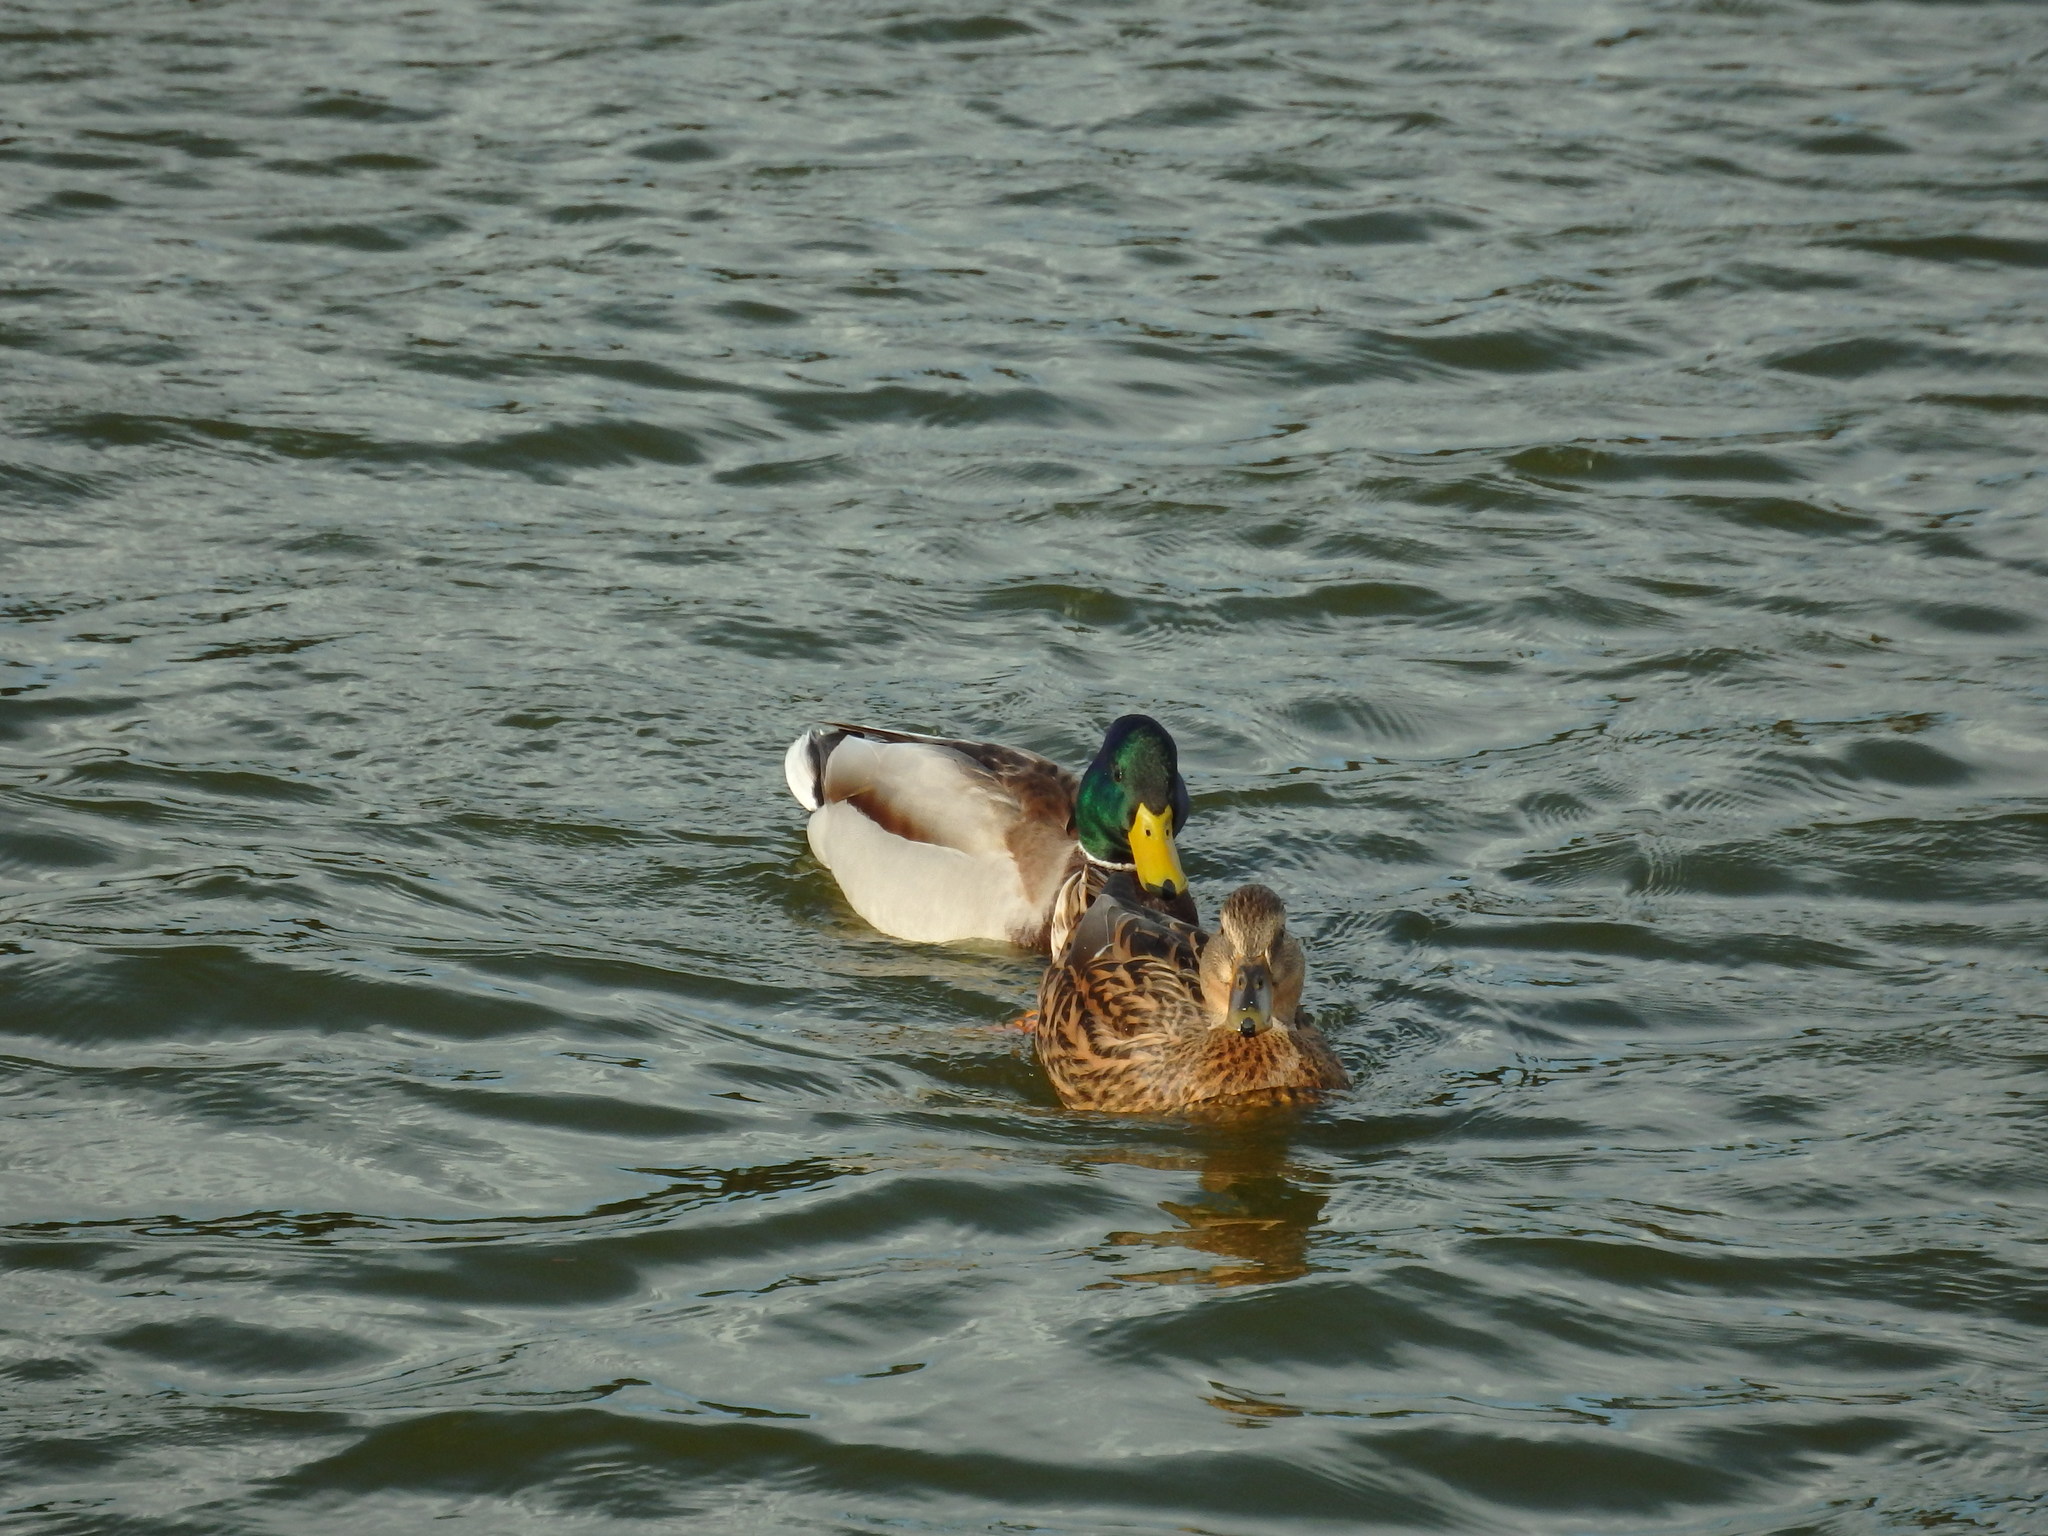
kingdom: Animalia
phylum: Chordata
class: Aves
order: Anseriformes
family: Anatidae
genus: Anas
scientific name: Anas platyrhynchos
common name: Mallard
